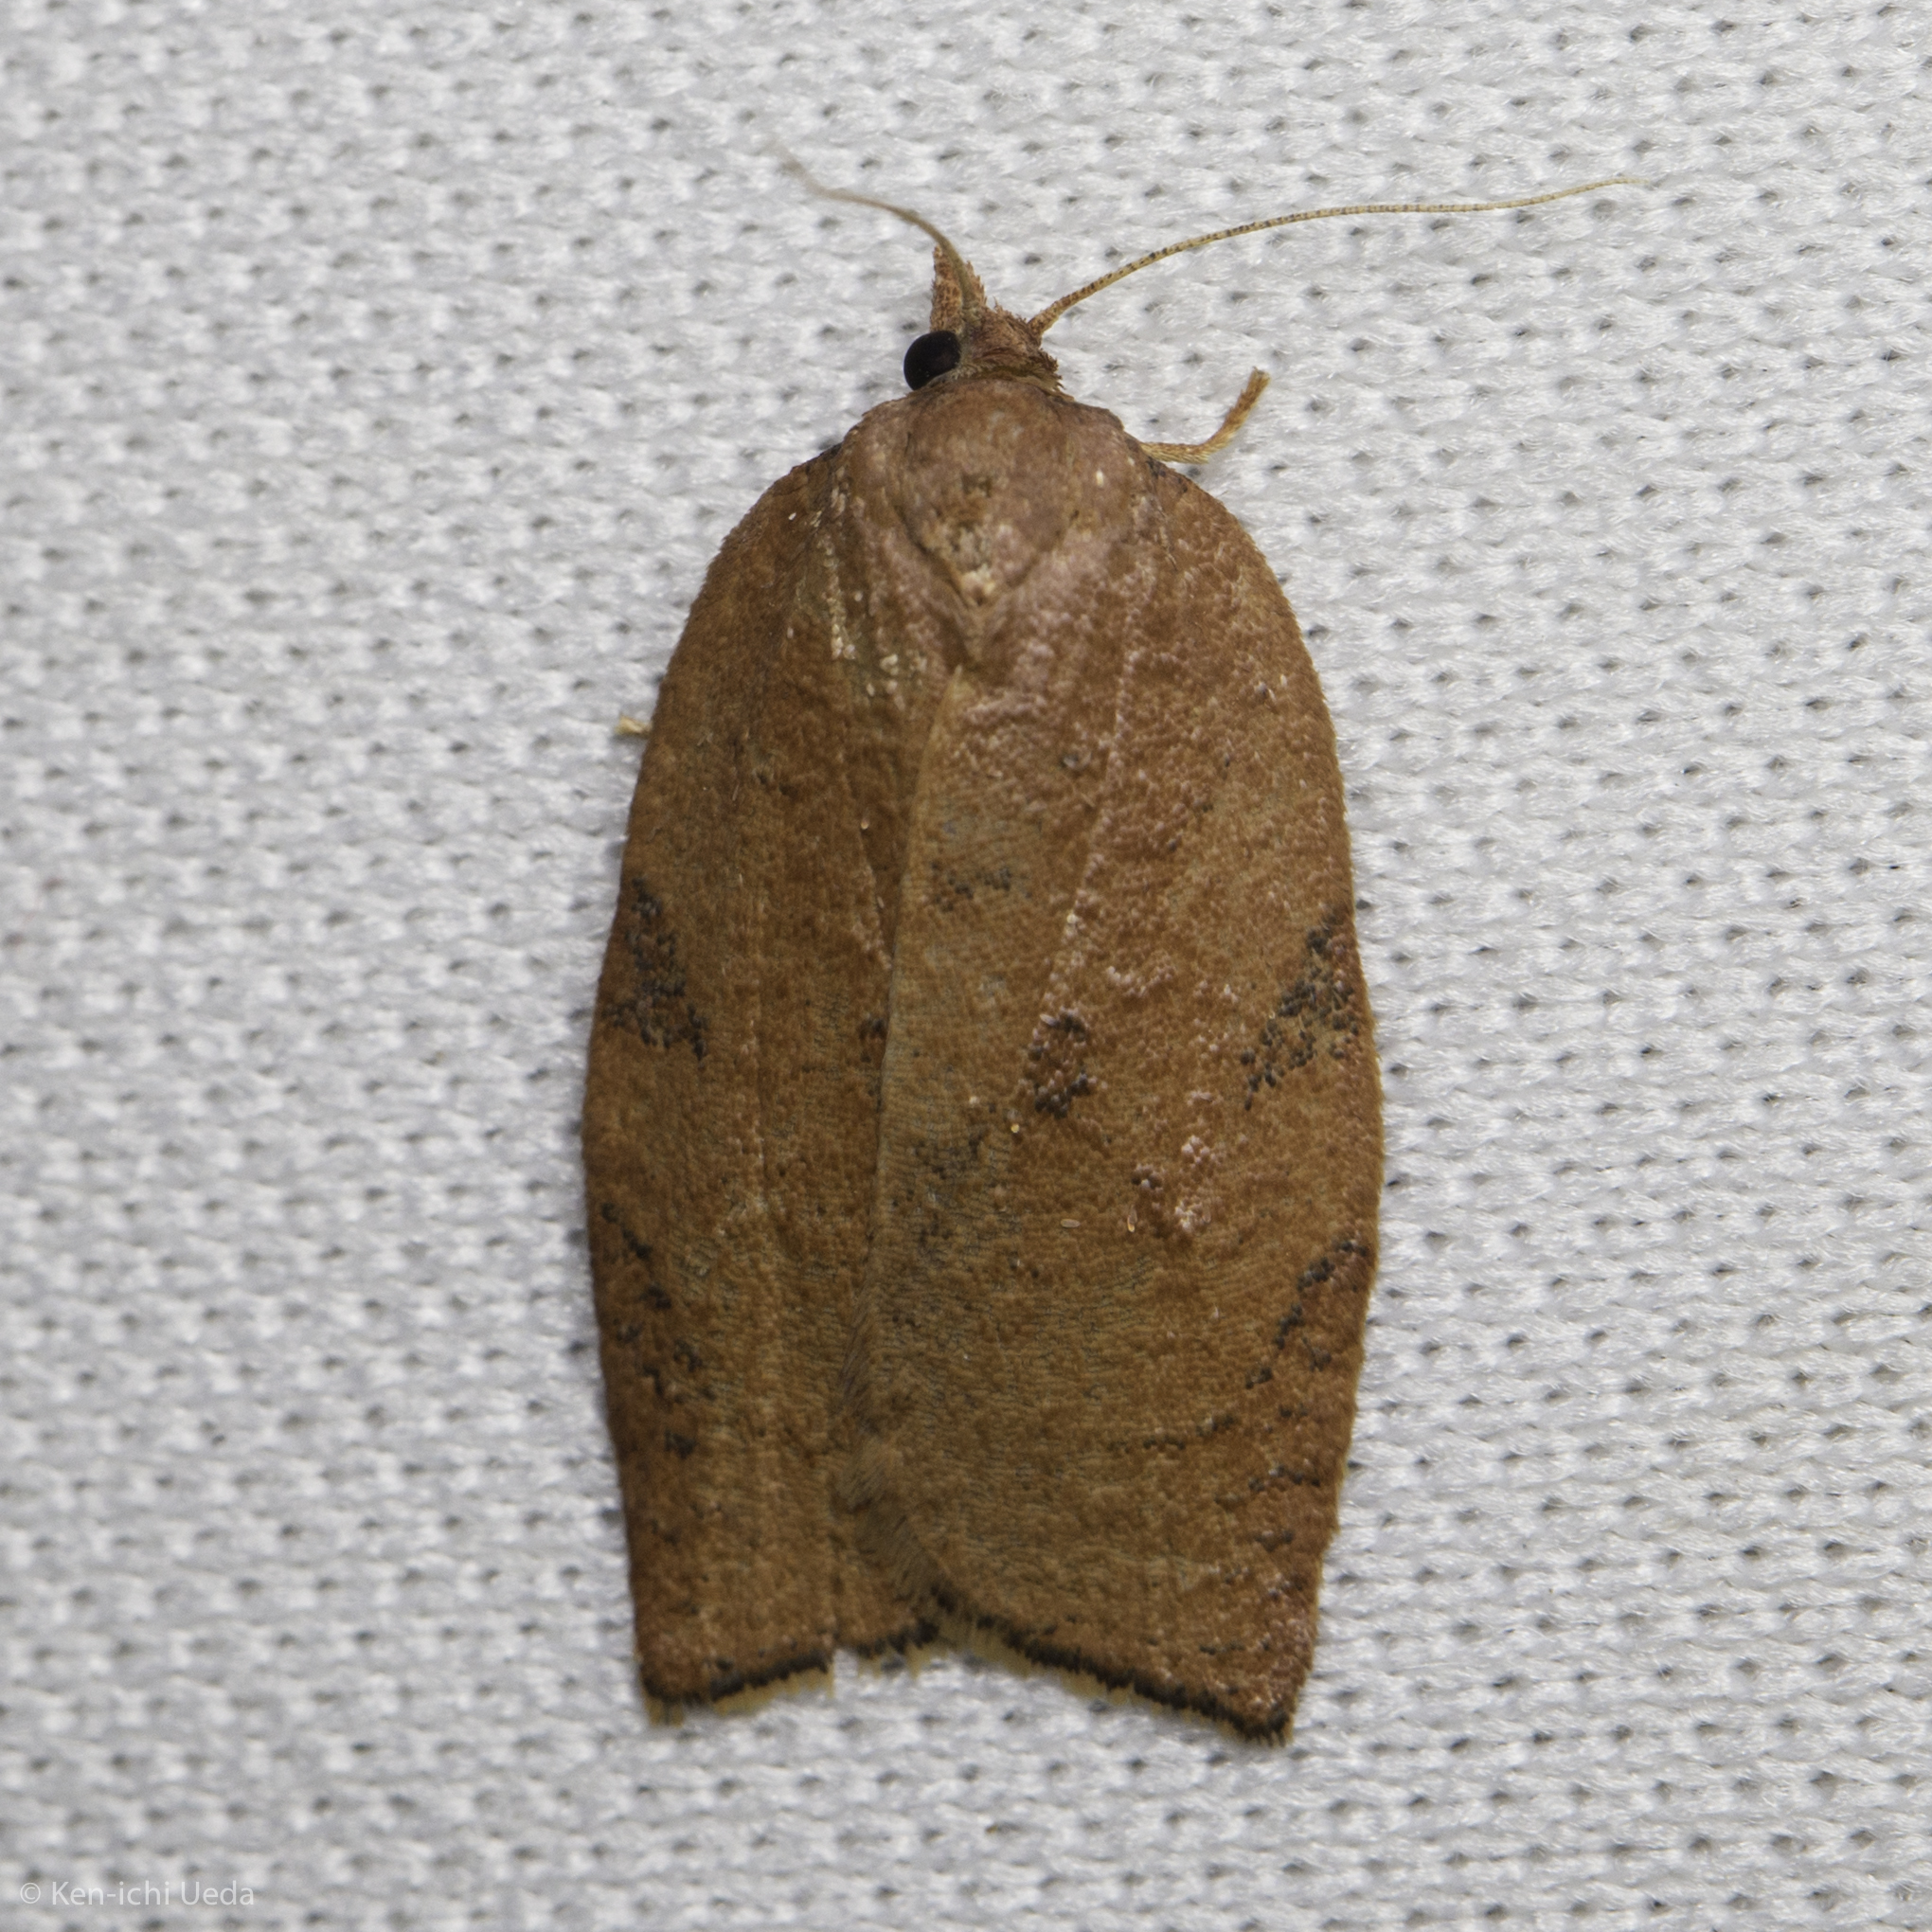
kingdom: Animalia
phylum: Arthropoda
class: Insecta
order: Lepidoptera
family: Tortricidae
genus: Amorbia
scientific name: Amorbia cuneanum
